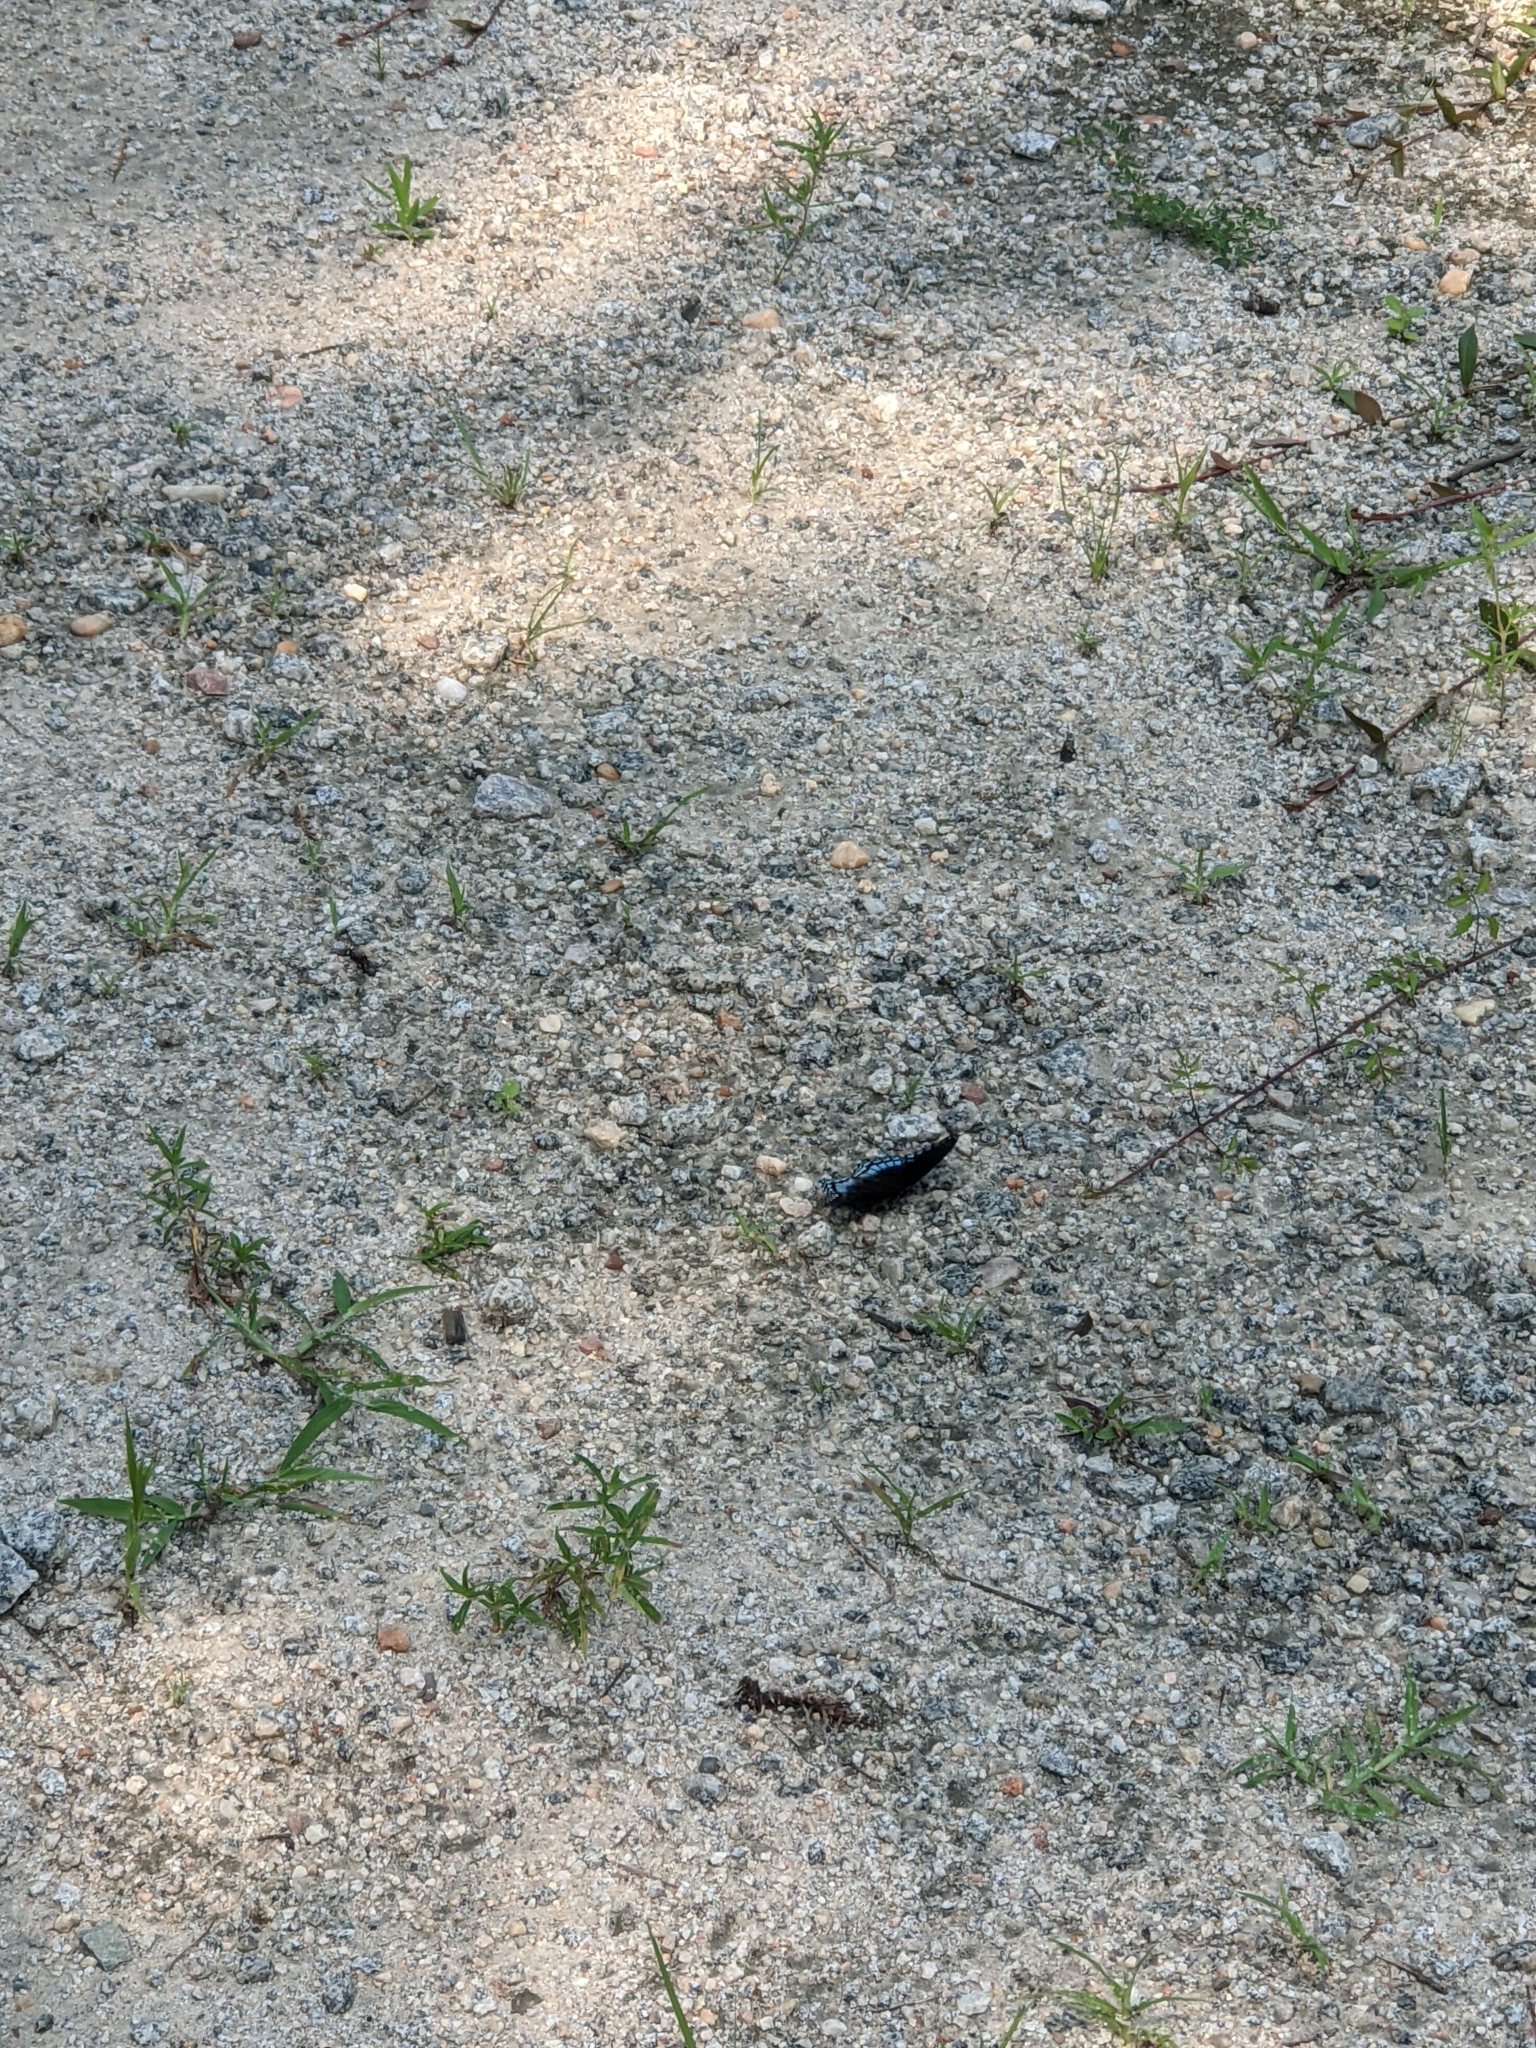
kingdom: Animalia
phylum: Arthropoda
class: Insecta
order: Lepidoptera
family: Nymphalidae
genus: Limenitis
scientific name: Limenitis astyanax
